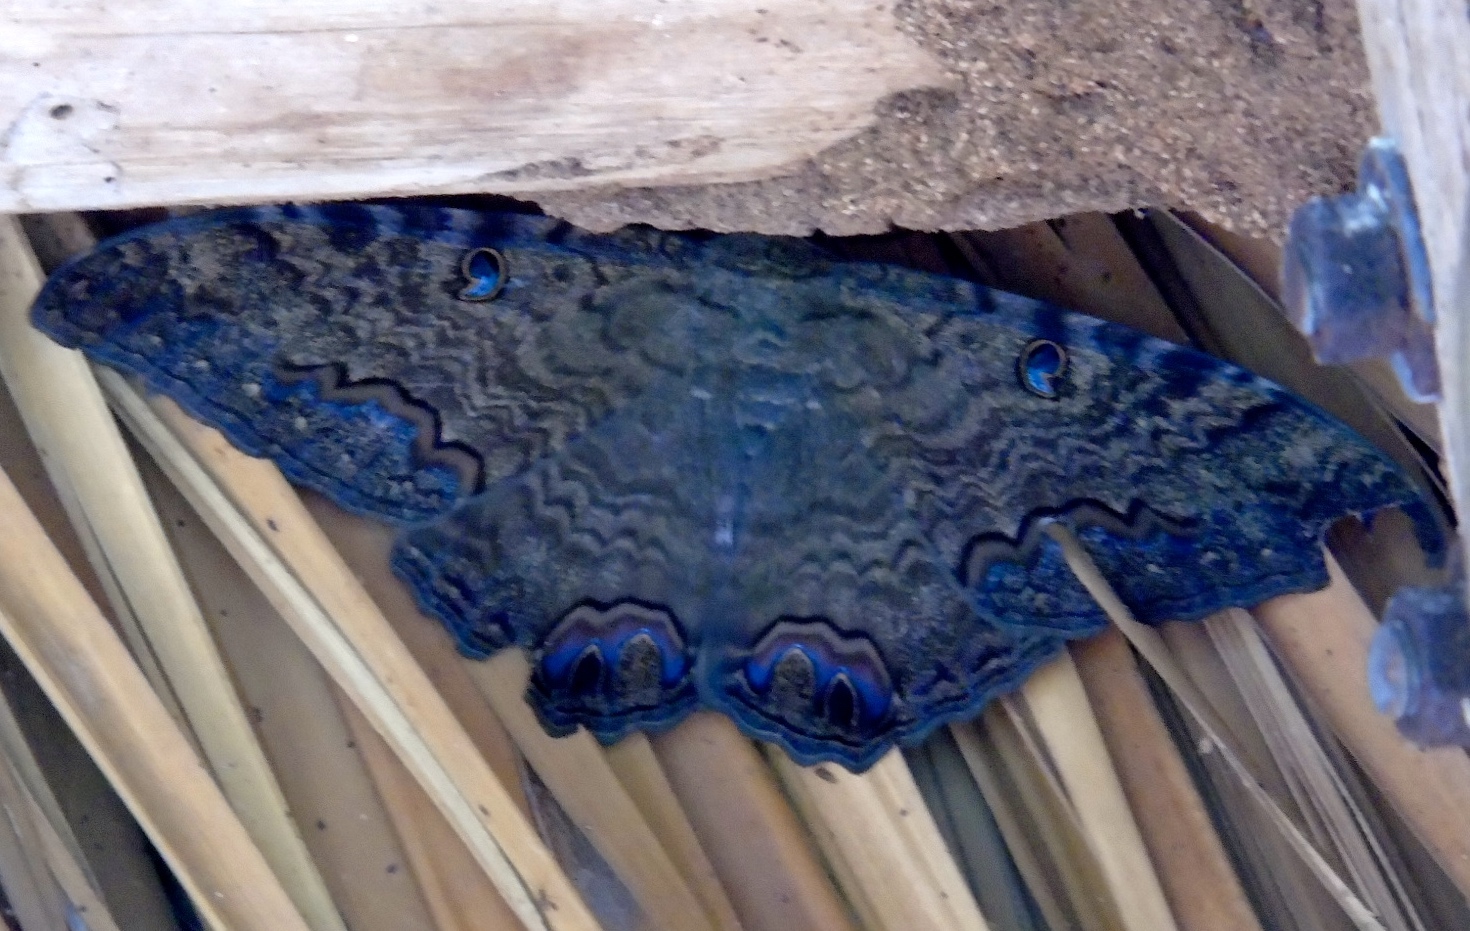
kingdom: Animalia
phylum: Arthropoda
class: Insecta
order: Lepidoptera
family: Erebidae
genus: Ascalapha
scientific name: Ascalapha odorata
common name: Black witch
